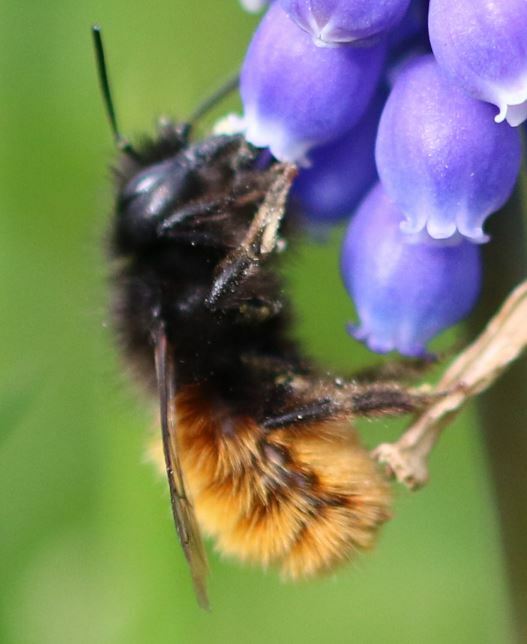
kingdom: Animalia
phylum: Arthropoda
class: Insecta
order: Hymenoptera
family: Megachilidae
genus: Osmia
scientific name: Osmia cornuta
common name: Mason bee
